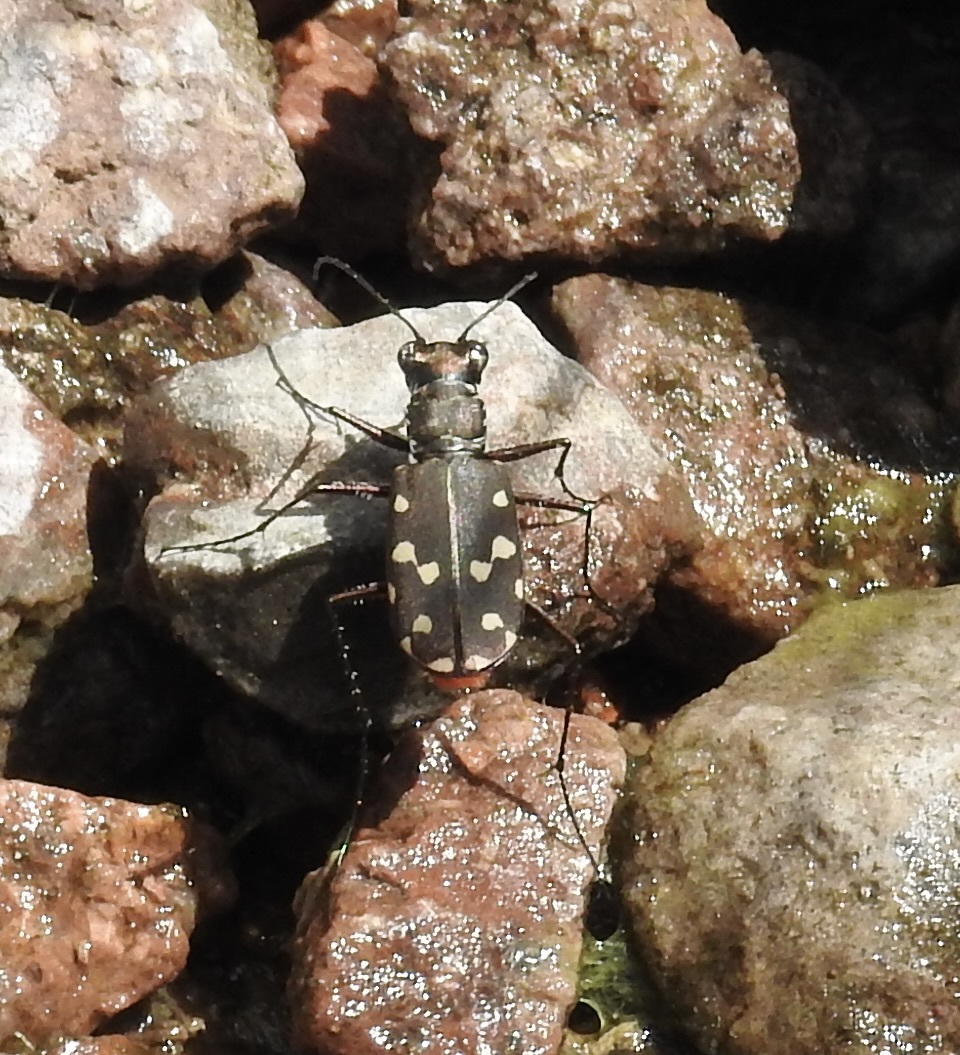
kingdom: Animalia
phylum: Arthropoda
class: Insecta
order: Coleoptera
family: Carabidae
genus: Cicindela
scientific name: Cicindela sedecimpunctata
